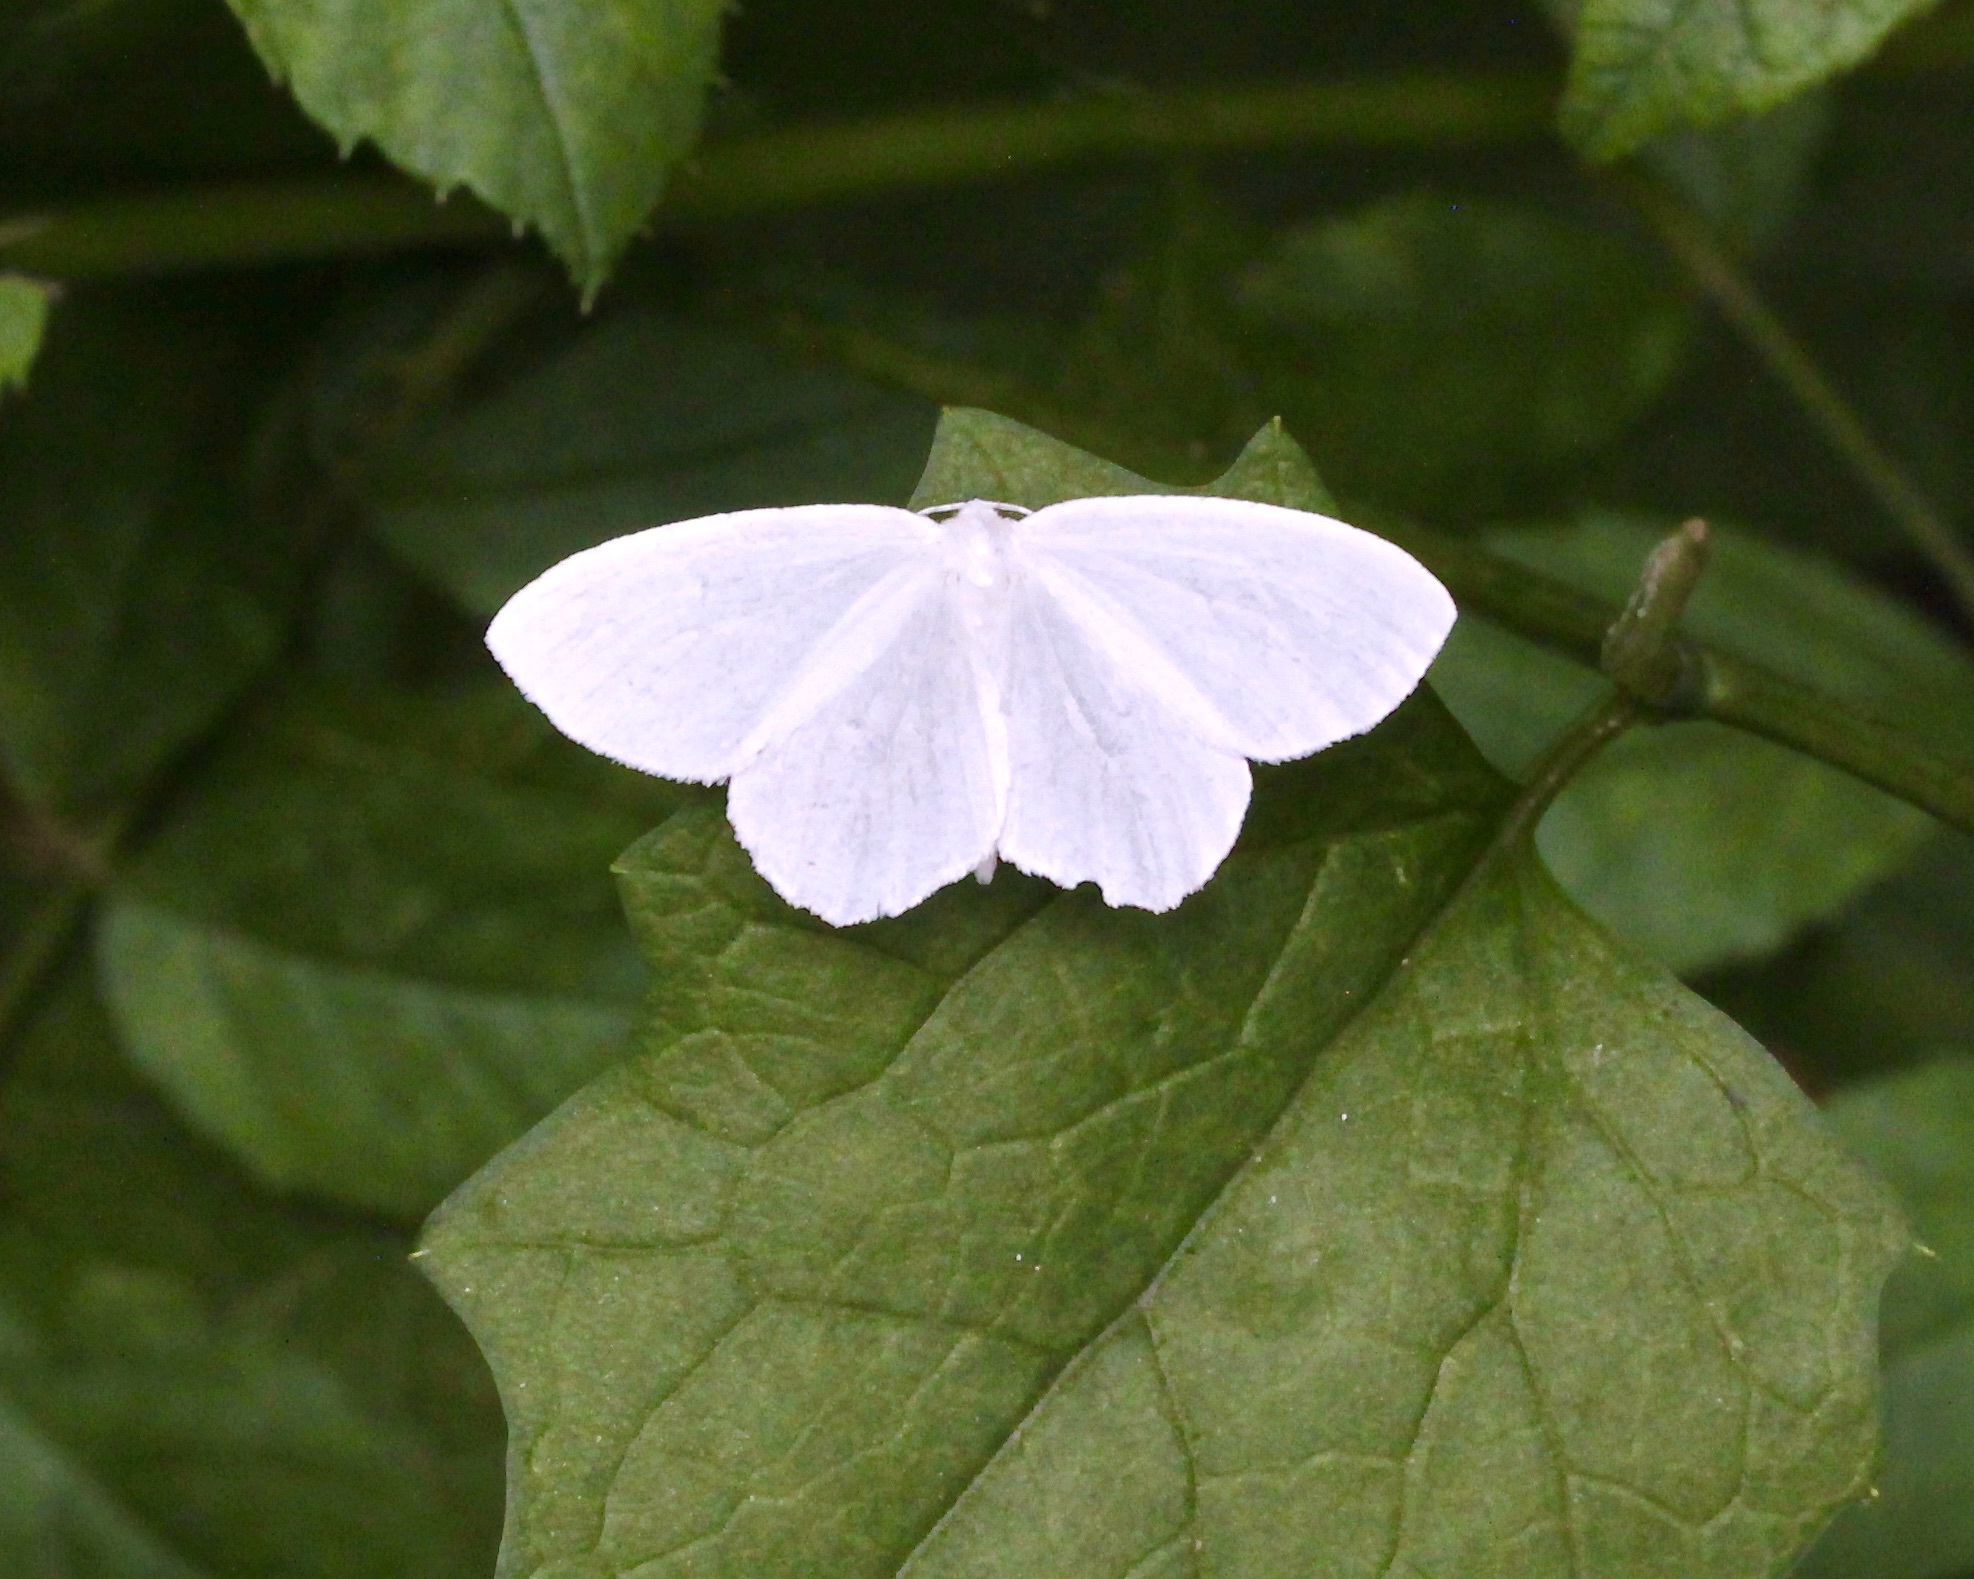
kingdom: Animalia
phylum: Arthropoda
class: Insecta
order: Lepidoptera
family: Geometridae
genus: Eugonobapta
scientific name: Eugonobapta nivosaria
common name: Snowy geometer
